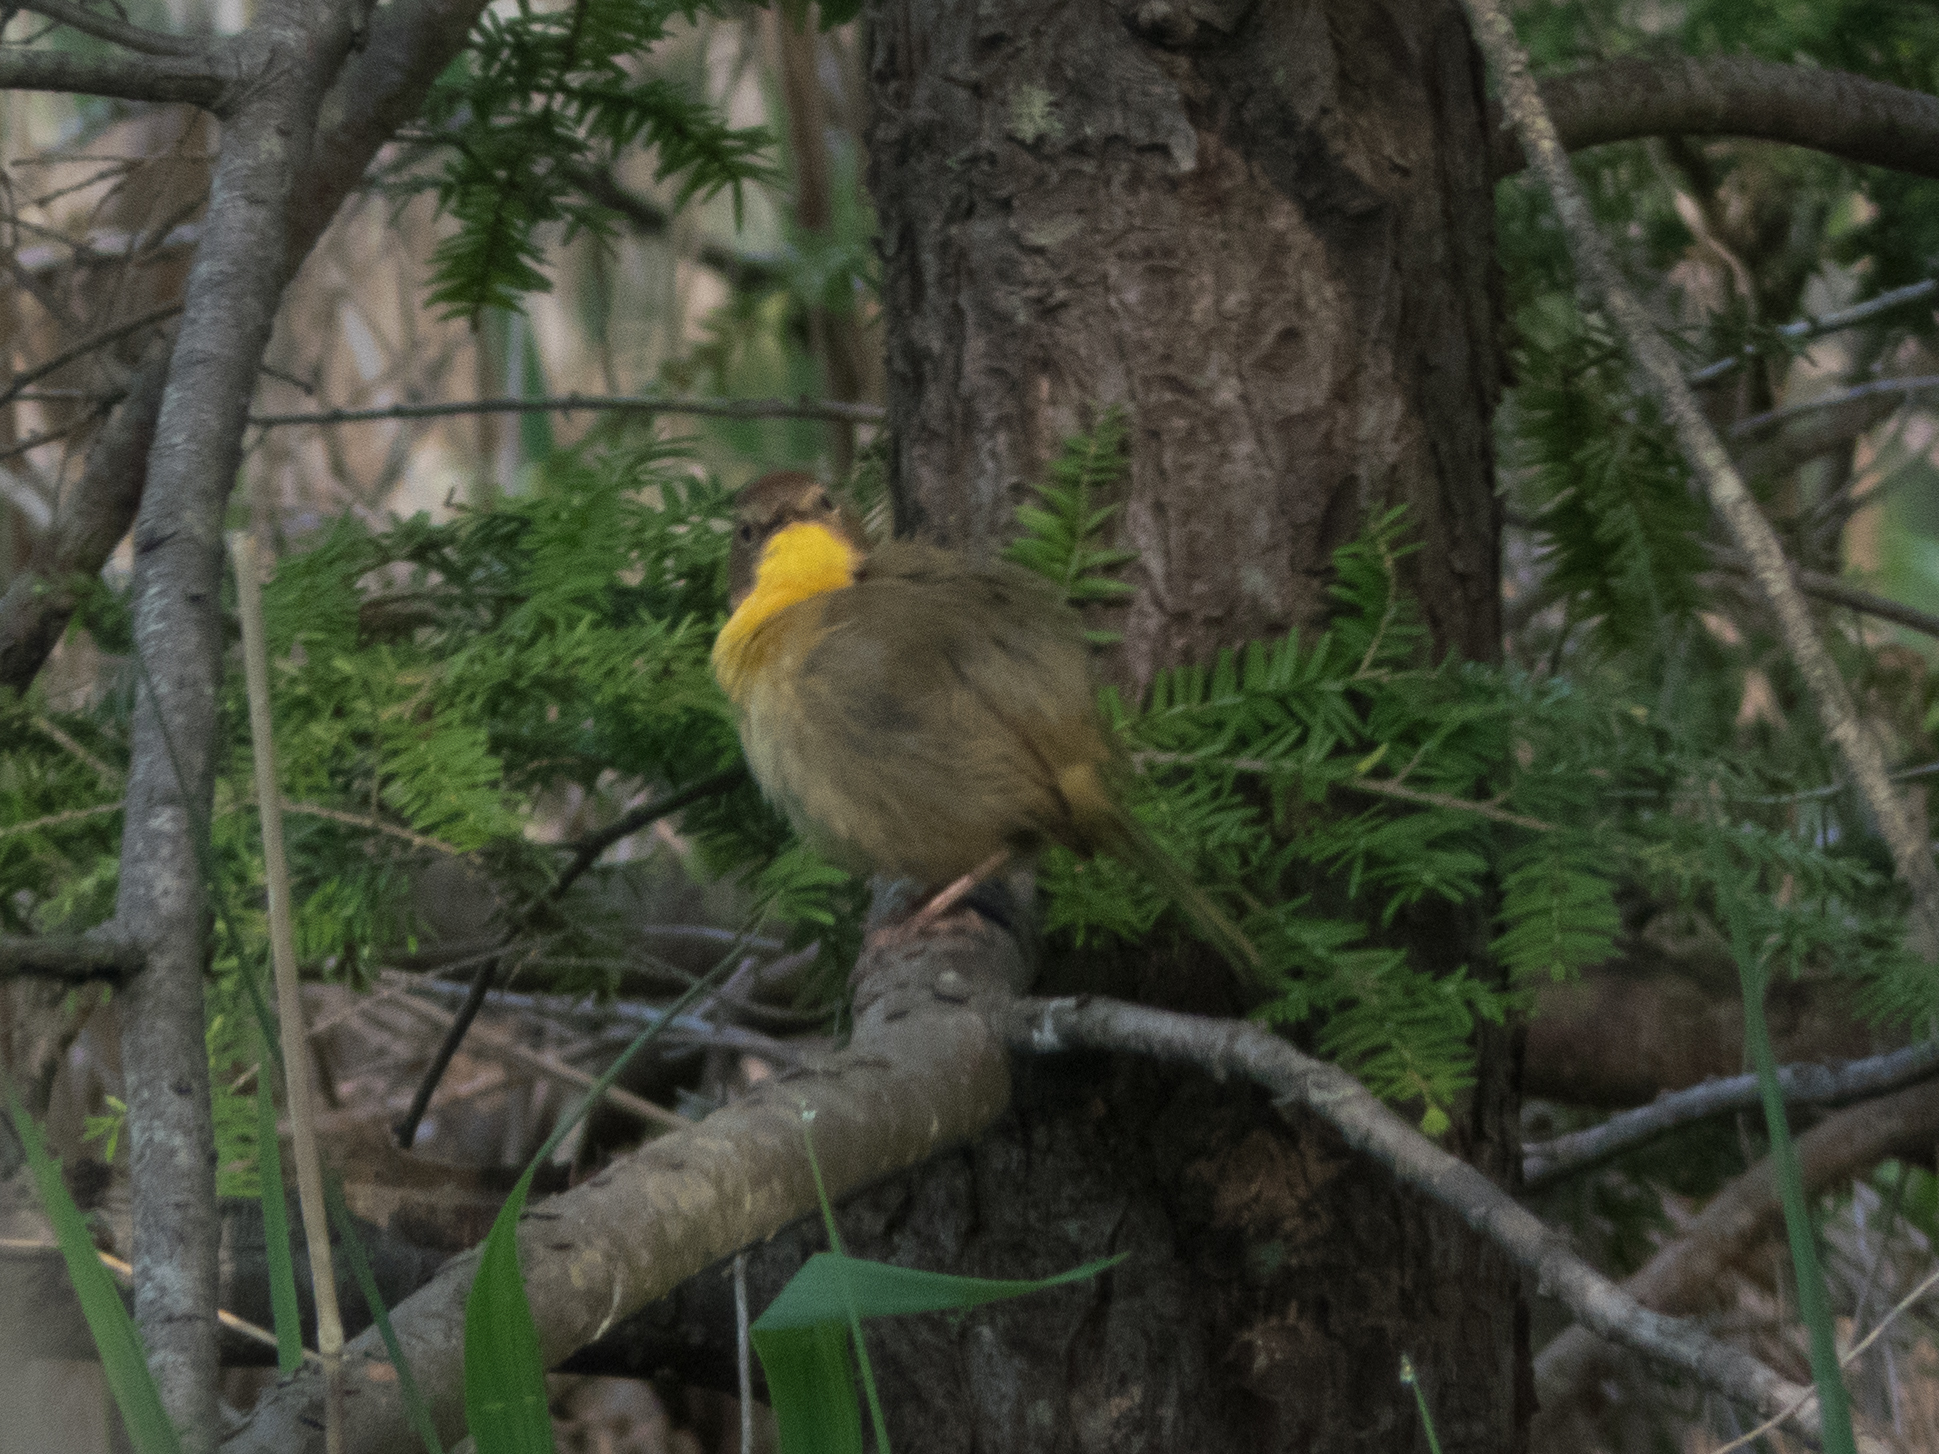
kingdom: Animalia
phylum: Chordata
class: Aves
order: Passeriformes
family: Parulidae
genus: Geothlypis
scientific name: Geothlypis trichas
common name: Common yellowthroat
